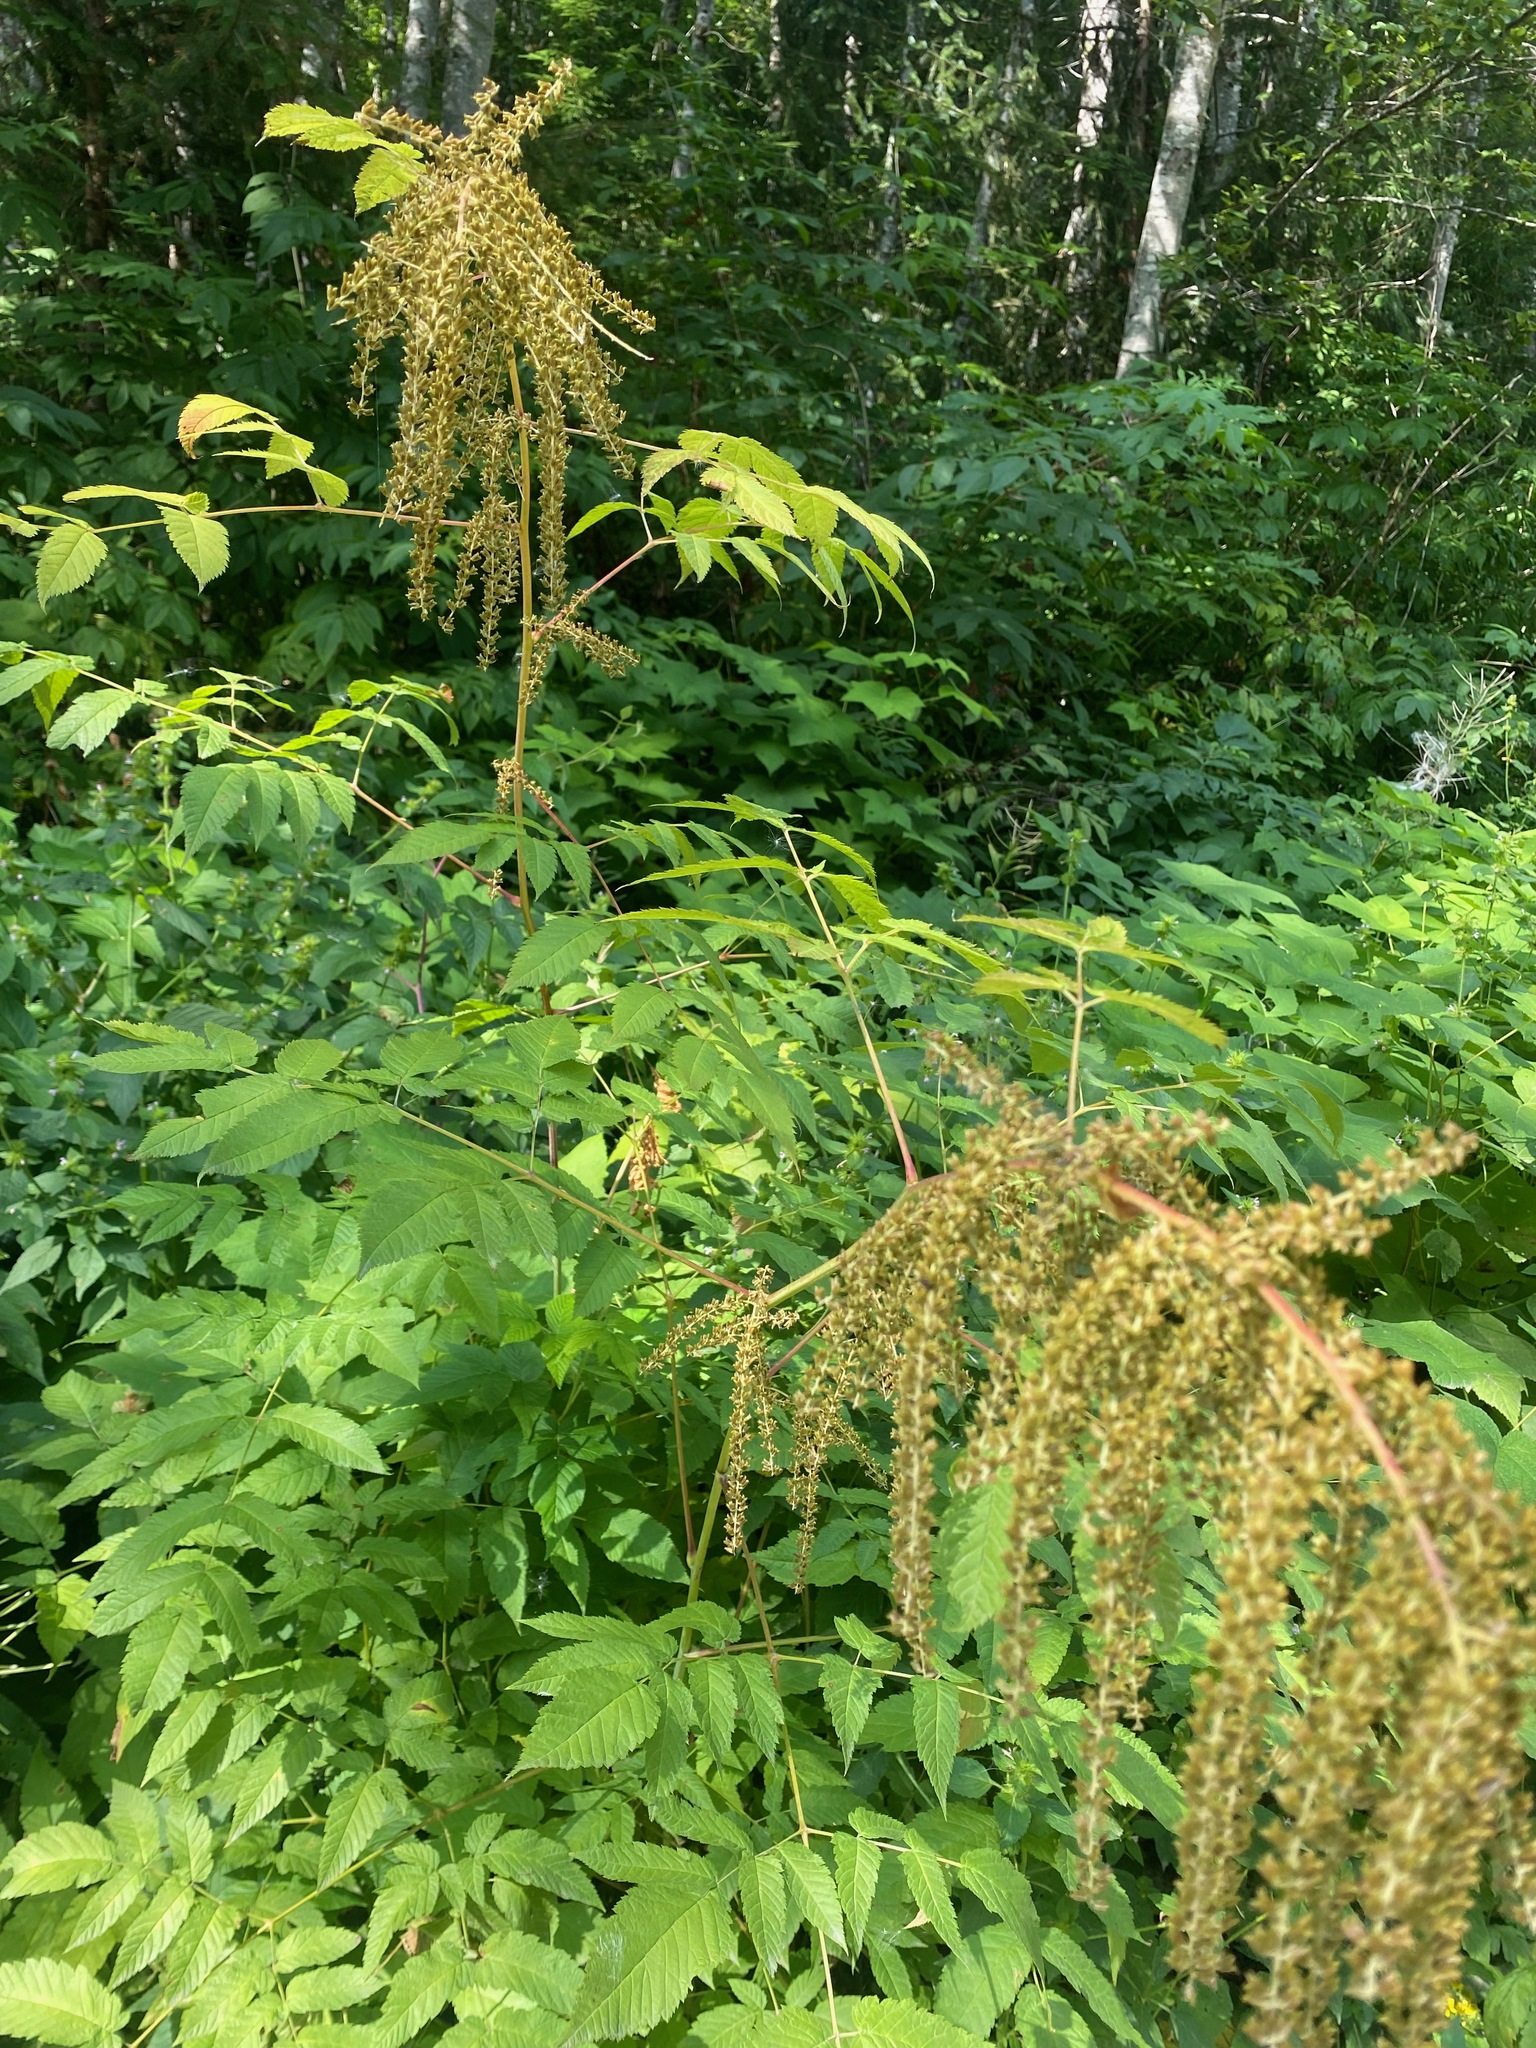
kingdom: Plantae
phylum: Tracheophyta
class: Magnoliopsida
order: Rosales
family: Rosaceae
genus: Aruncus
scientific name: Aruncus dioicus
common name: Buck's-beard
